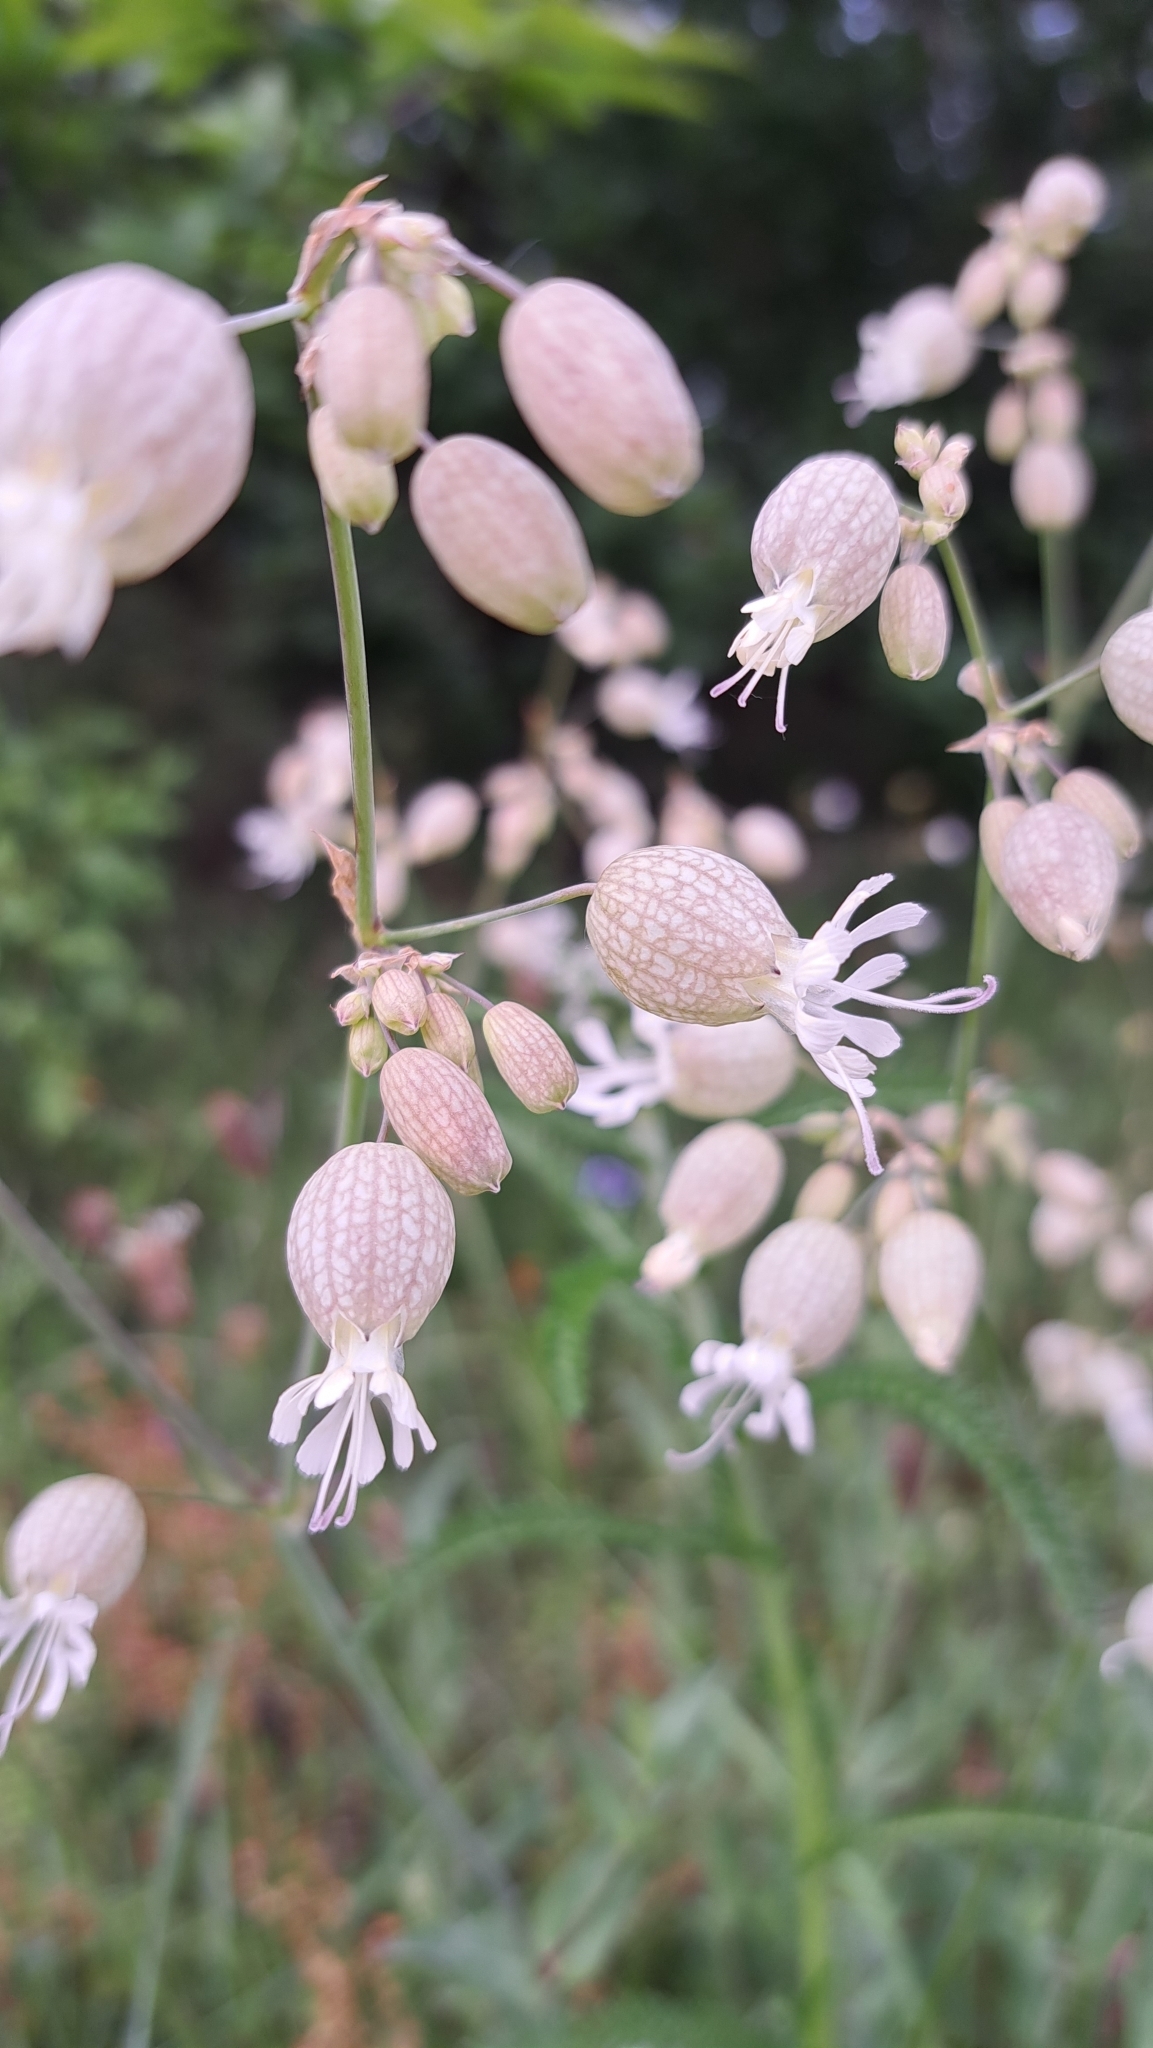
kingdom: Plantae
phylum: Tracheophyta
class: Magnoliopsida
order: Caryophyllales
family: Caryophyllaceae
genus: Silene
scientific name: Silene vulgaris
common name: Bladder campion
